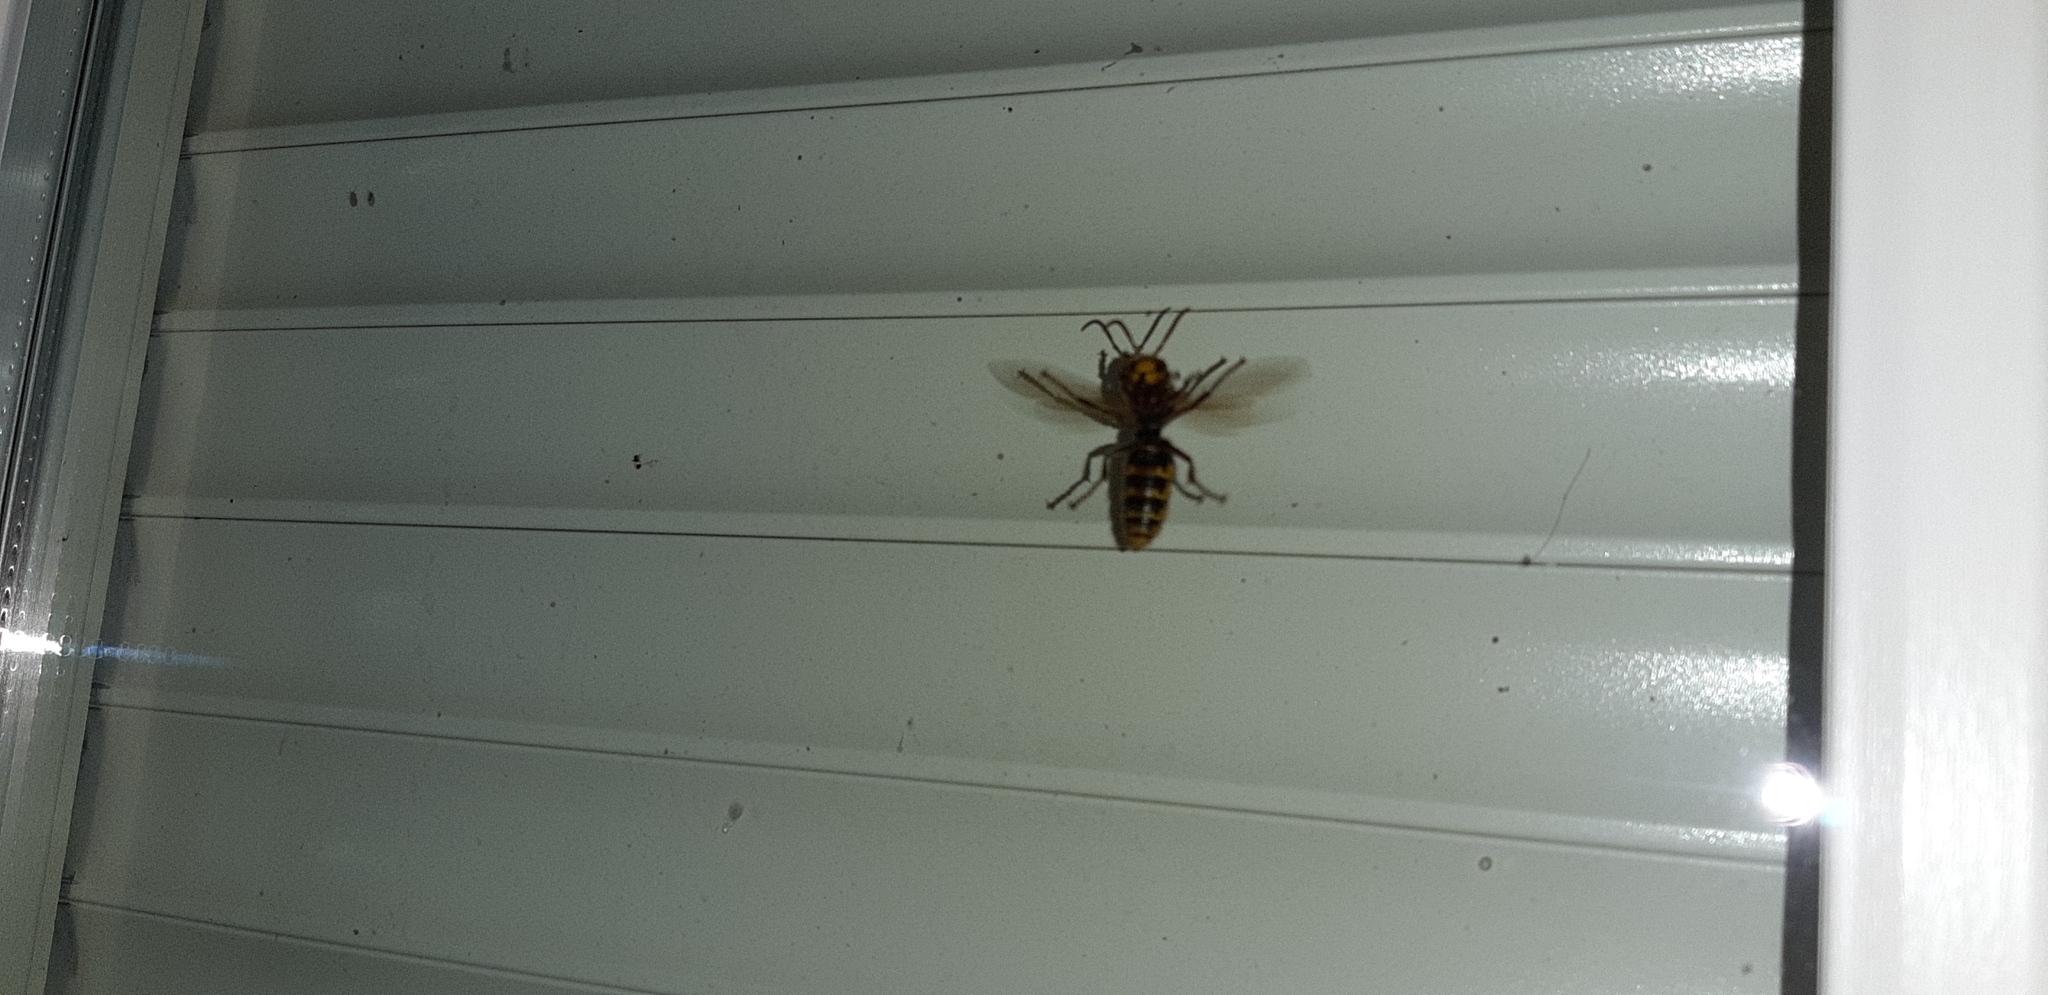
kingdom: Animalia
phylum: Arthropoda
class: Insecta
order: Hymenoptera
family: Vespidae
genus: Vespa
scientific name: Vespa crabro
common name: Hornet
